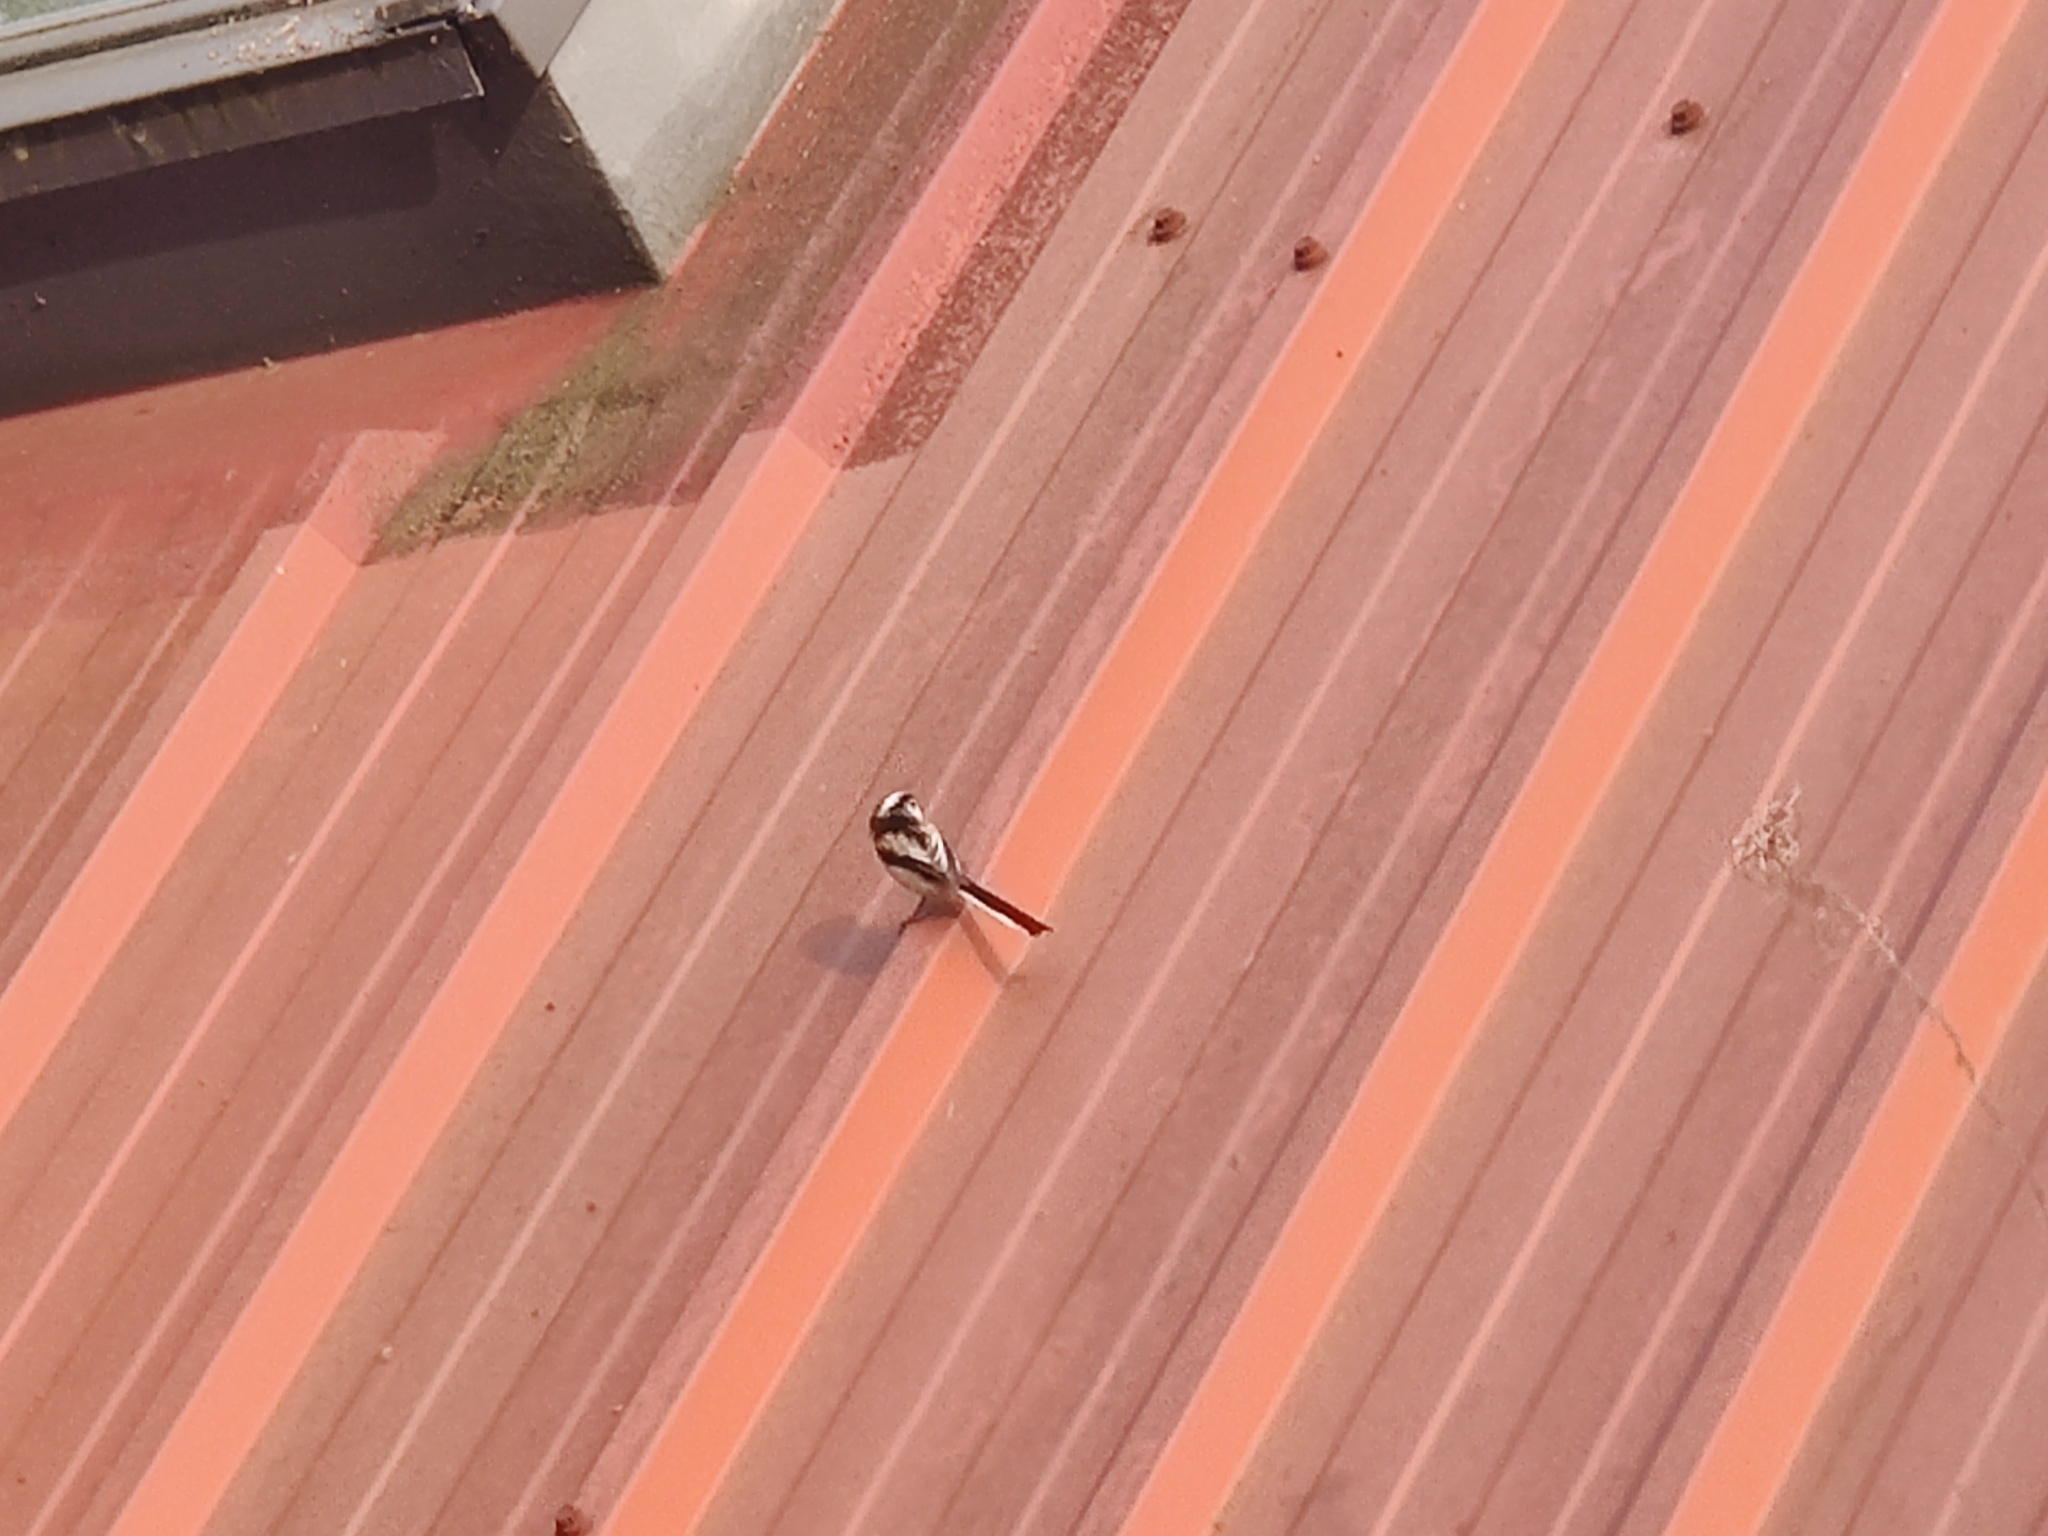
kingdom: Animalia
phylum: Chordata
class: Aves
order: Passeriformes
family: Aegithalidae
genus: Aegithalos
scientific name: Aegithalos caudatus
